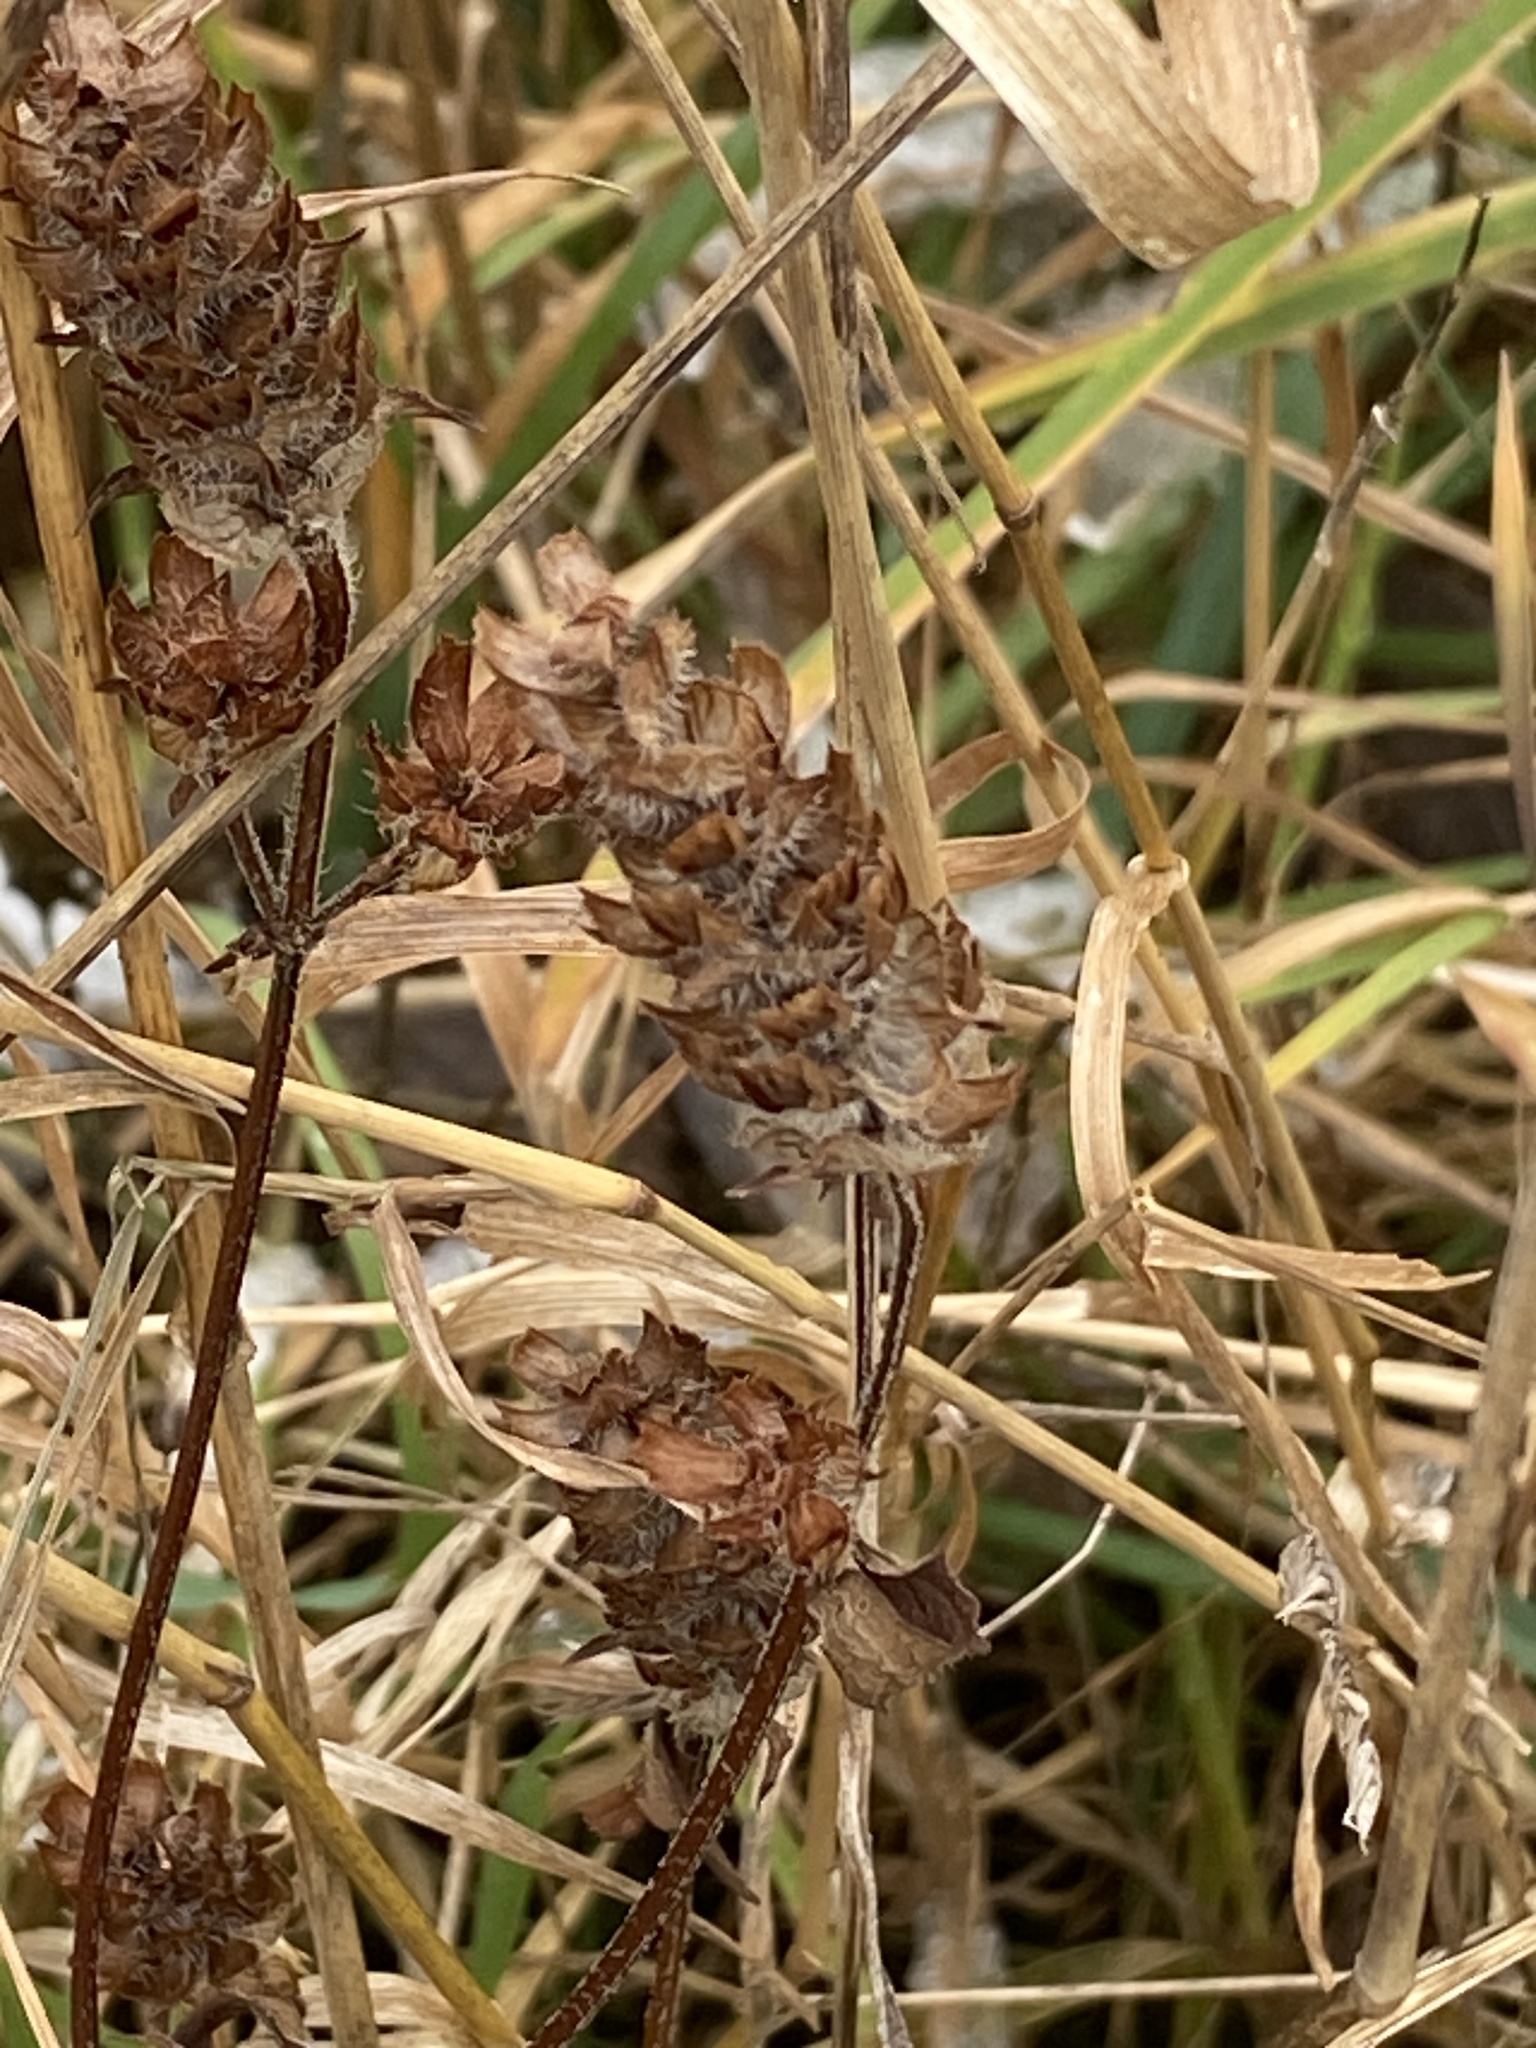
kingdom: Plantae
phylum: Tracheophyta
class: Magnoliopsida
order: Lamiales
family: Lamiaceae
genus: Prunella
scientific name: Prunella vulgaris
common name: Heal-all
